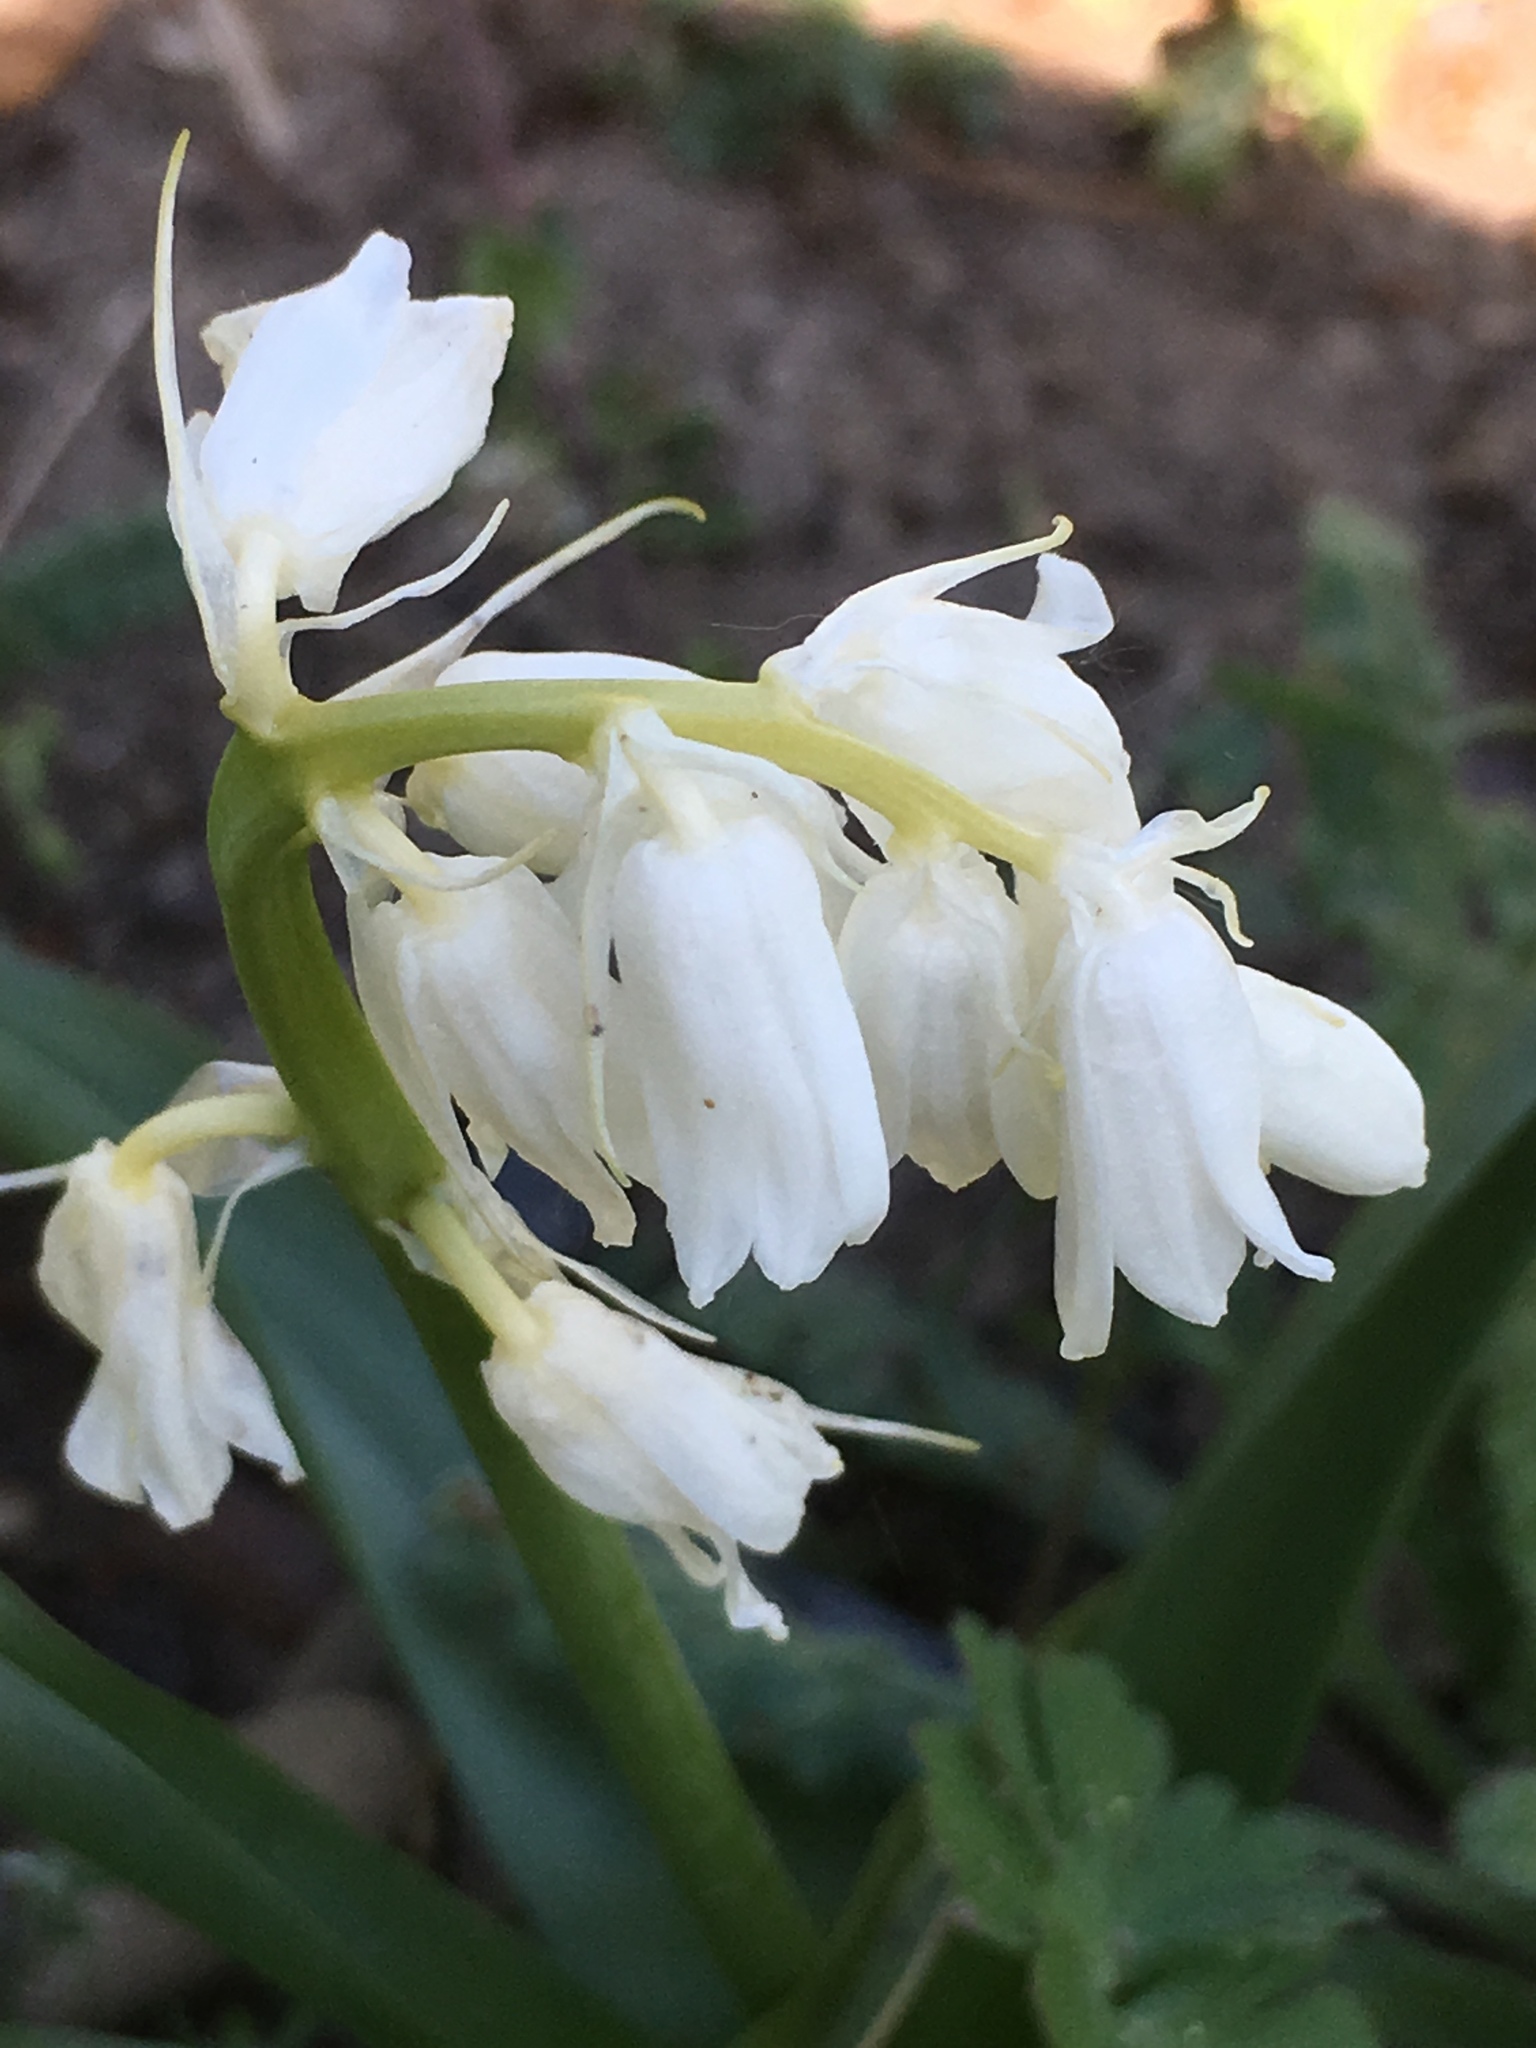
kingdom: Plantae
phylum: Tracheophyta
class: Liliopsida
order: Asparagales
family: Asparagaceae
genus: Hyacinthoides
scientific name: Hyacinthoides hispanica
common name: Spanish bluebell
